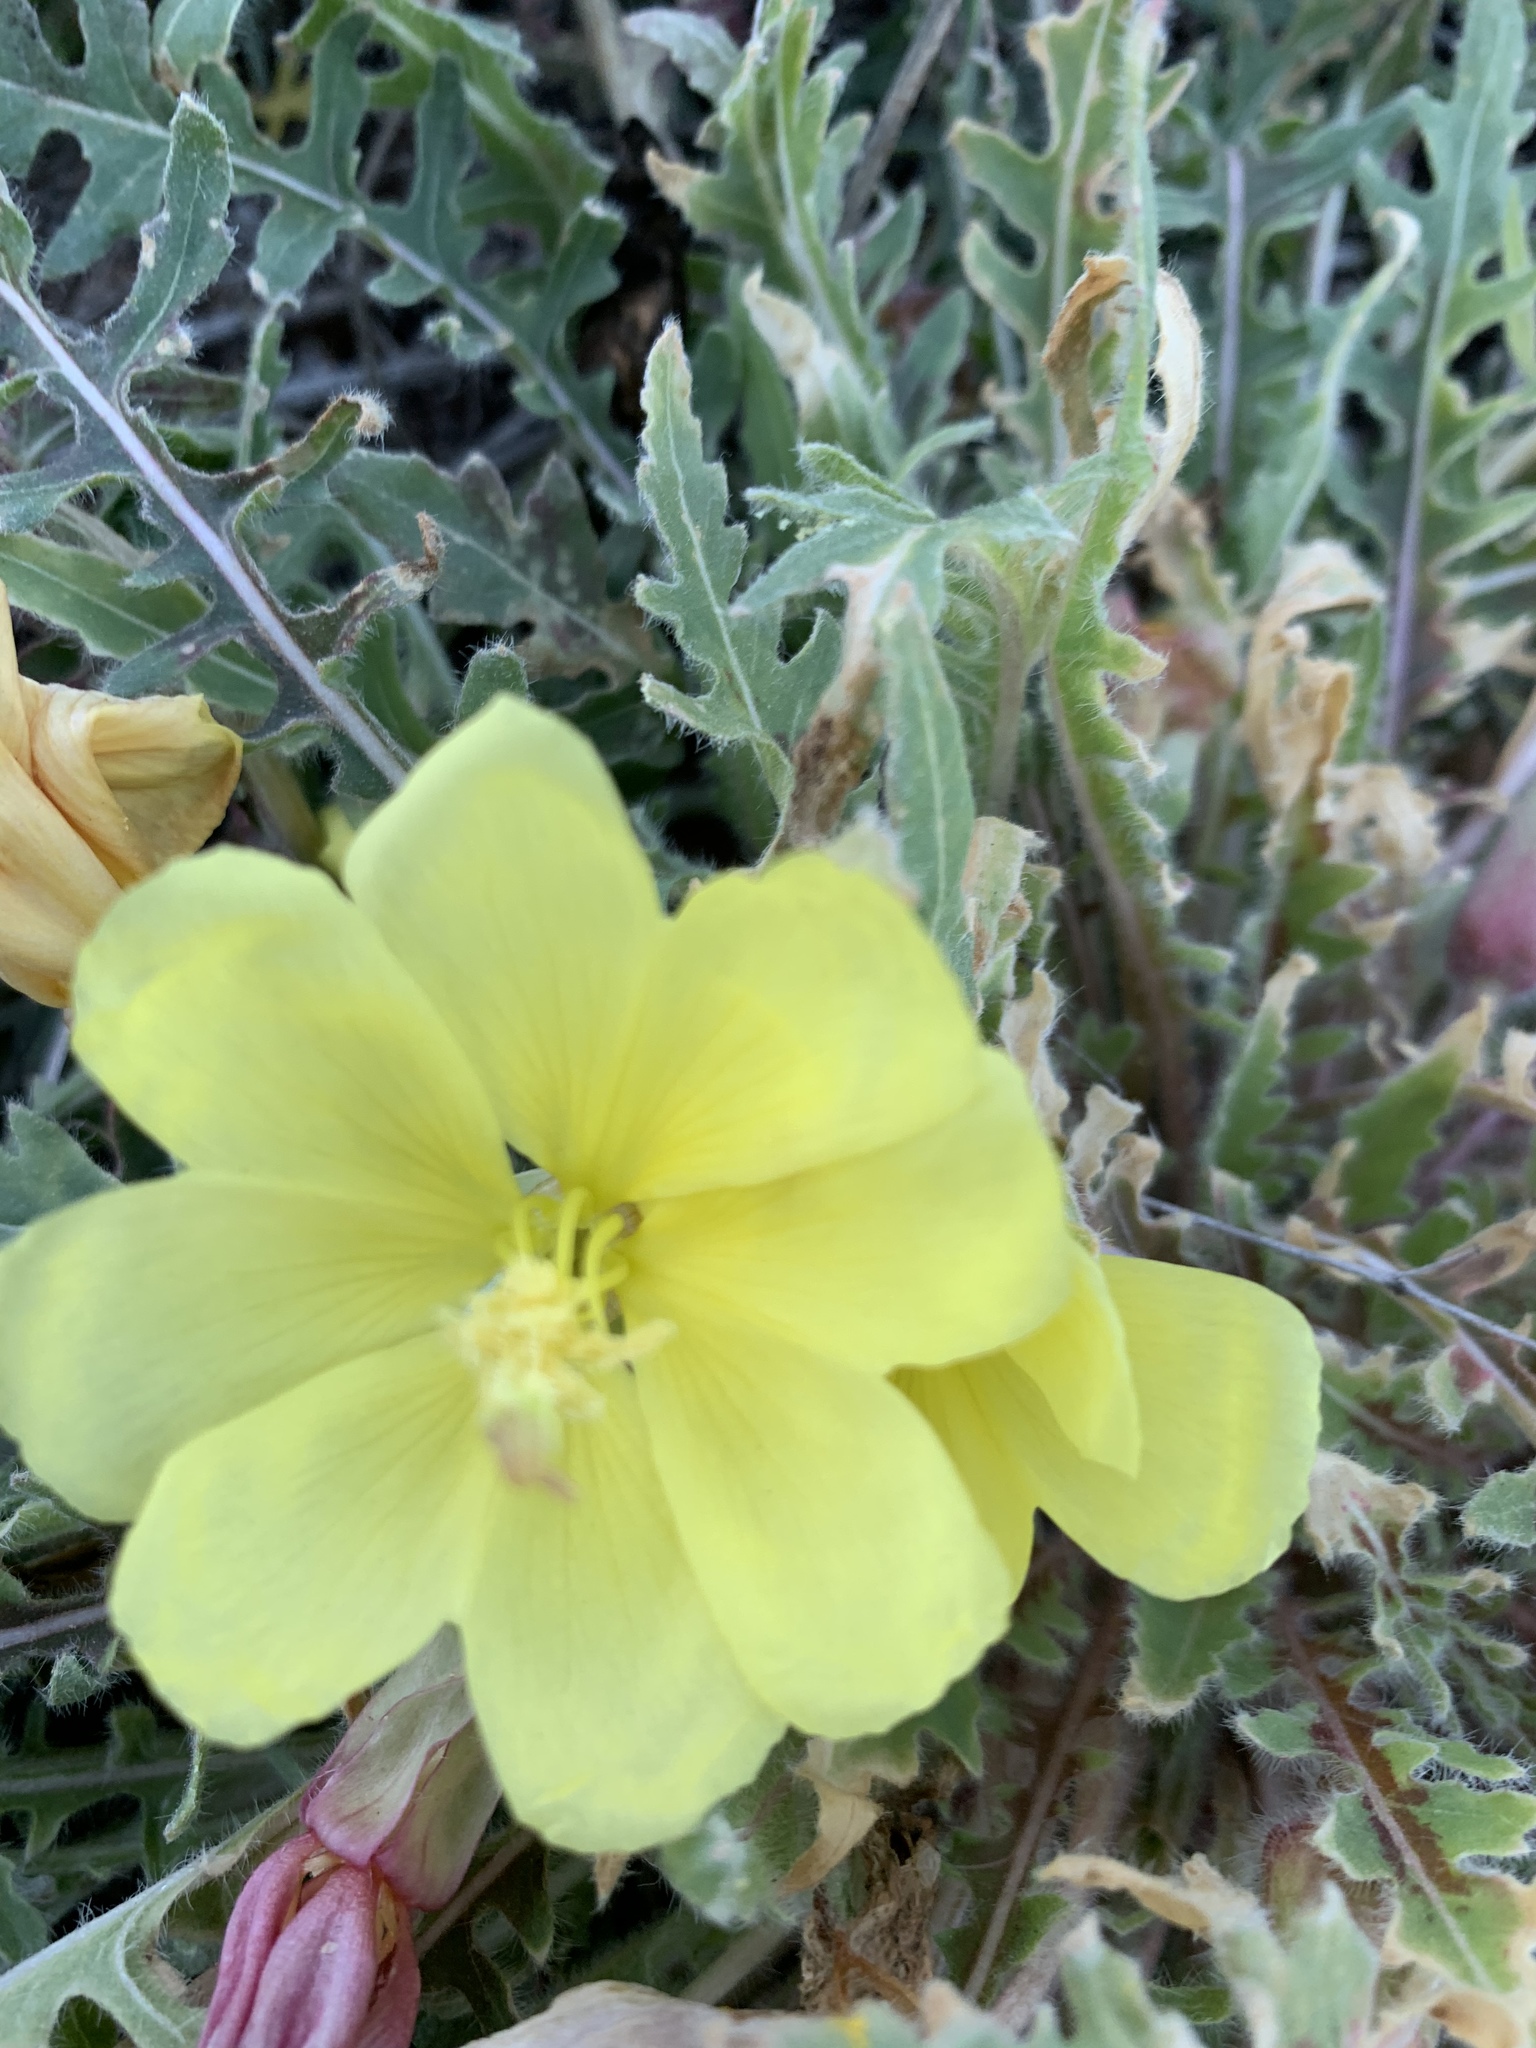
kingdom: Plantae
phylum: Tracheophyta
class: Magnoliopsida
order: Myrtales
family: Onagraceae
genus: Oenothera
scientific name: Oenothera primiveris
